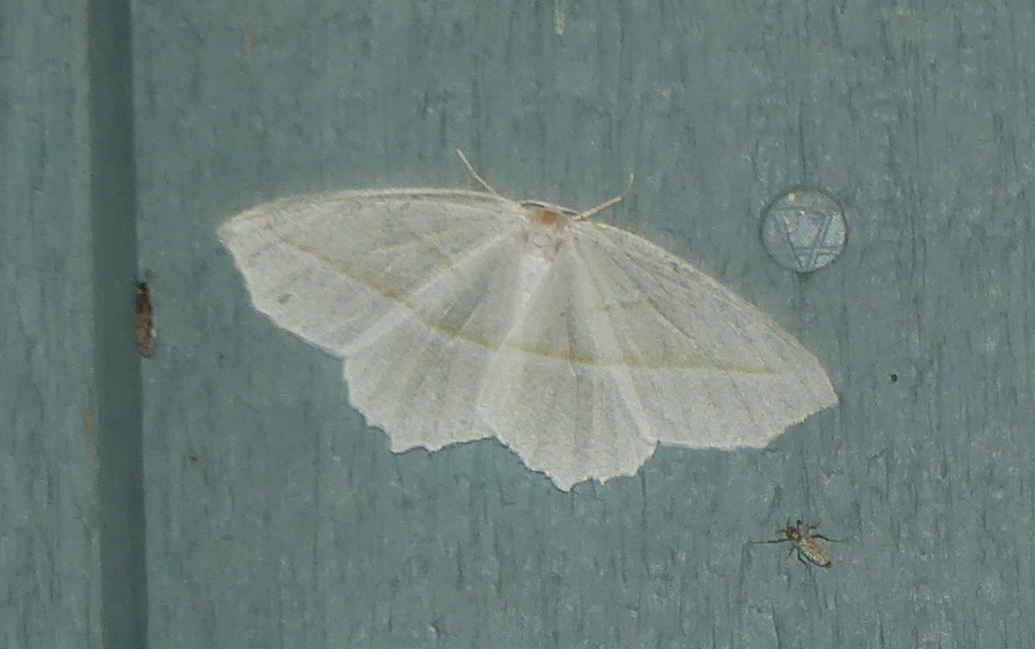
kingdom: Animalia
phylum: Arthropoda
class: Insecta
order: Lepidoptera
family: Geometridae
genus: Campaea
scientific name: Campaea perlata
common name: Fringed looper
